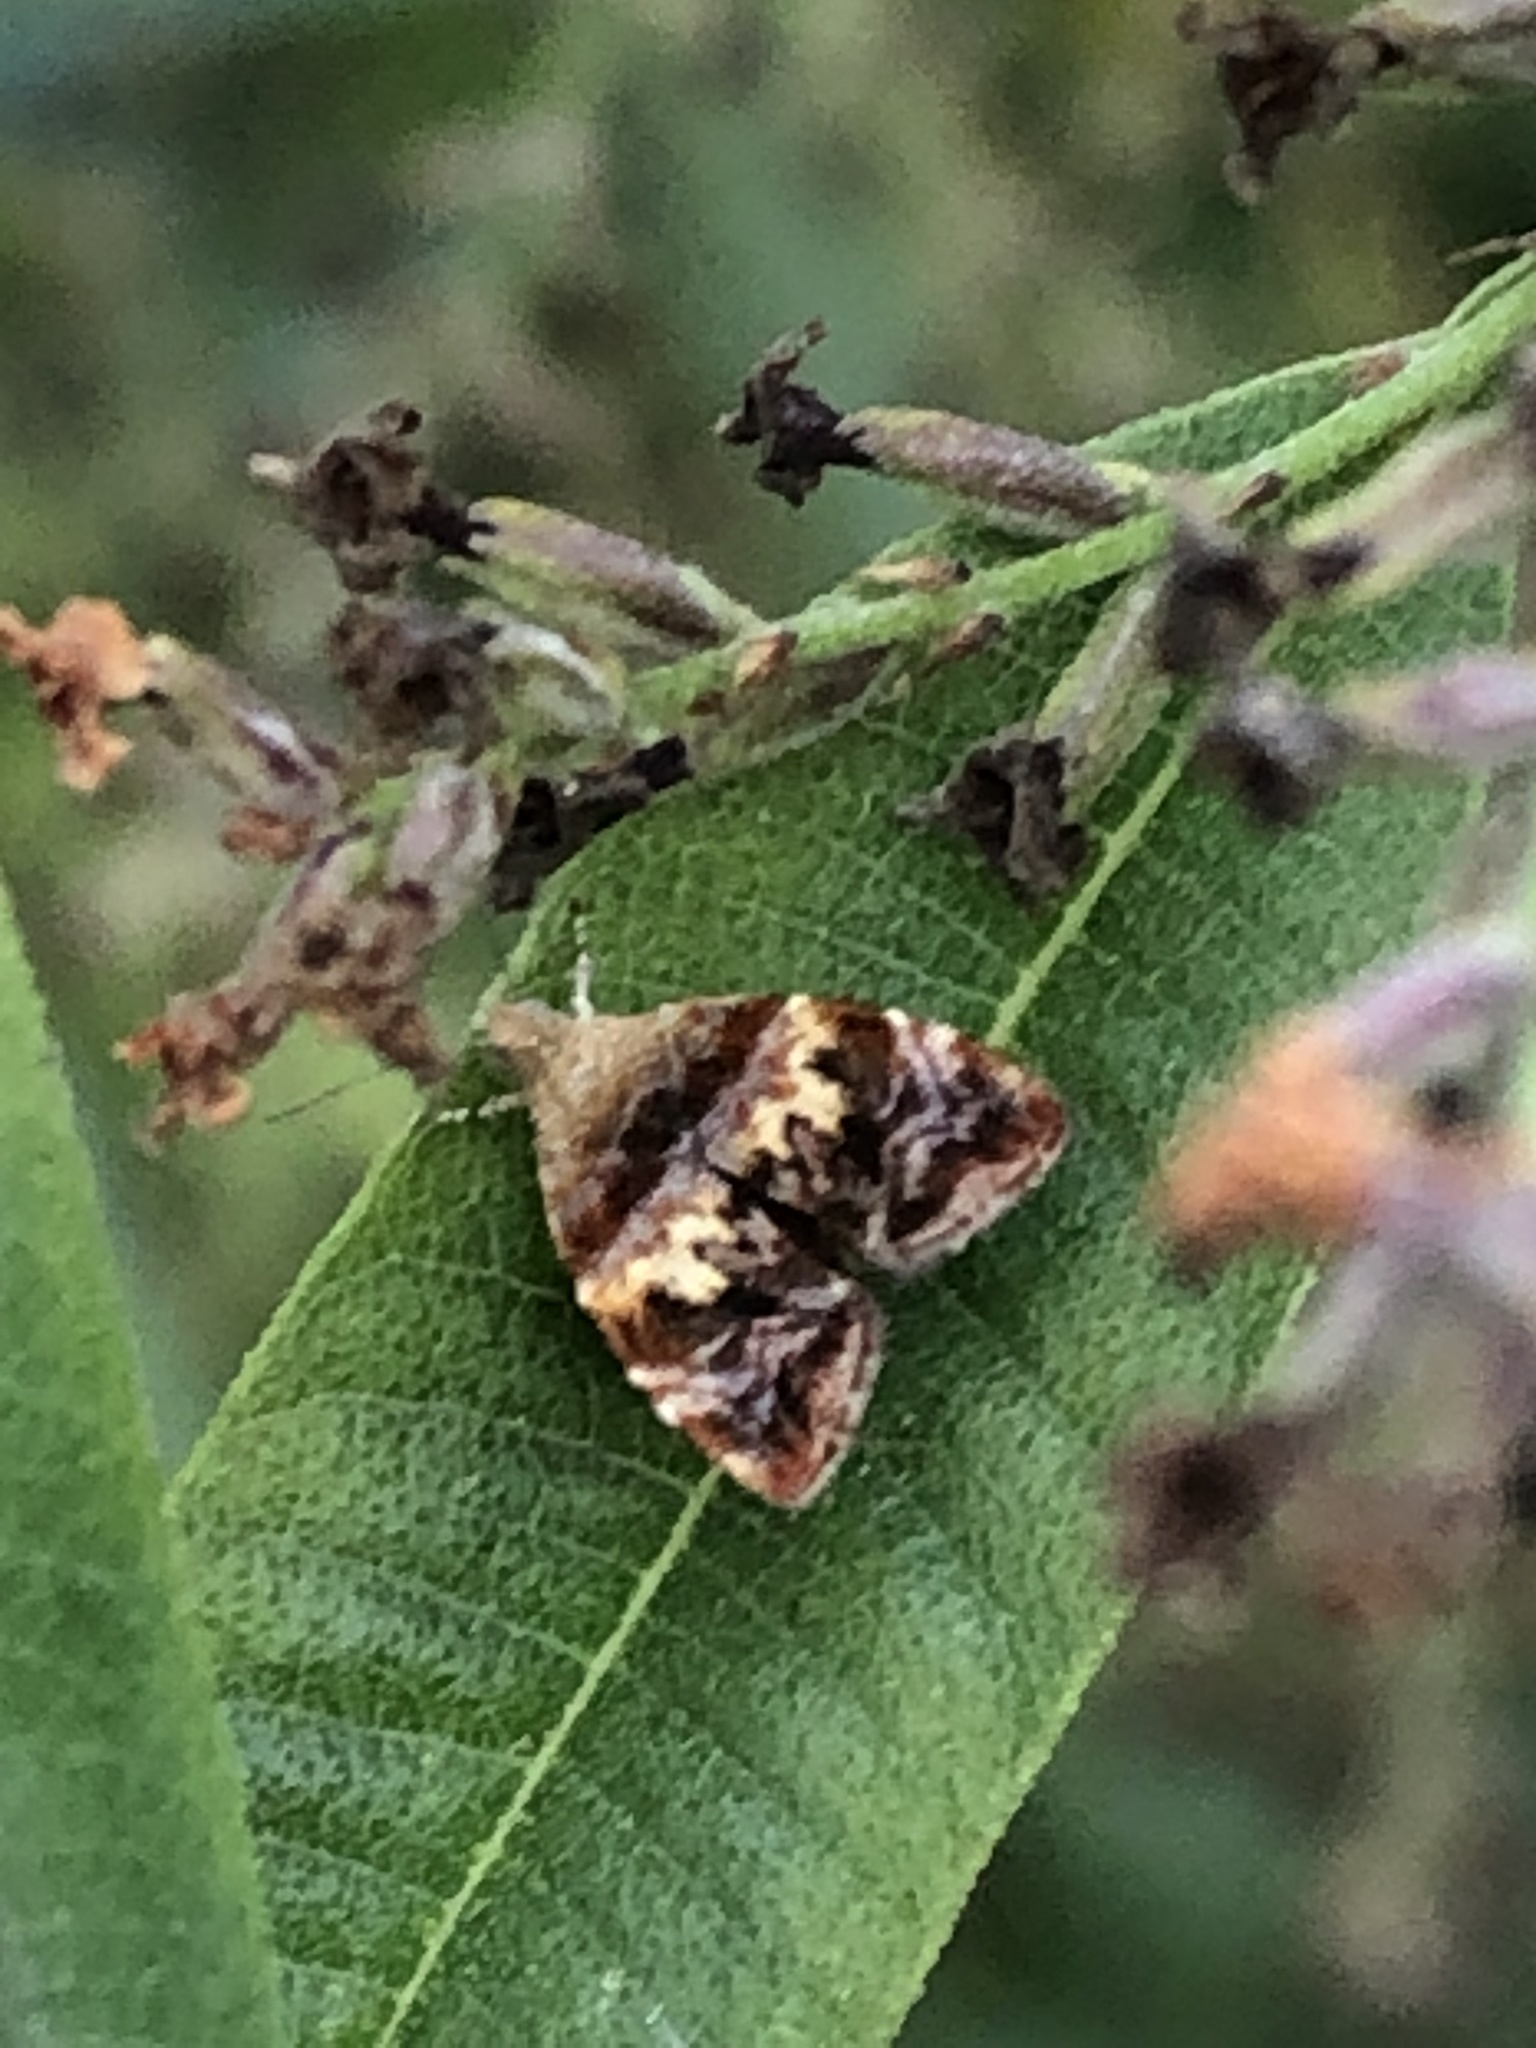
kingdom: Animalia
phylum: Arthropoda
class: Insecta
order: Lepidoptera
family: Choreutidae
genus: Choreutis
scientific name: Choreutis sexfasciella
